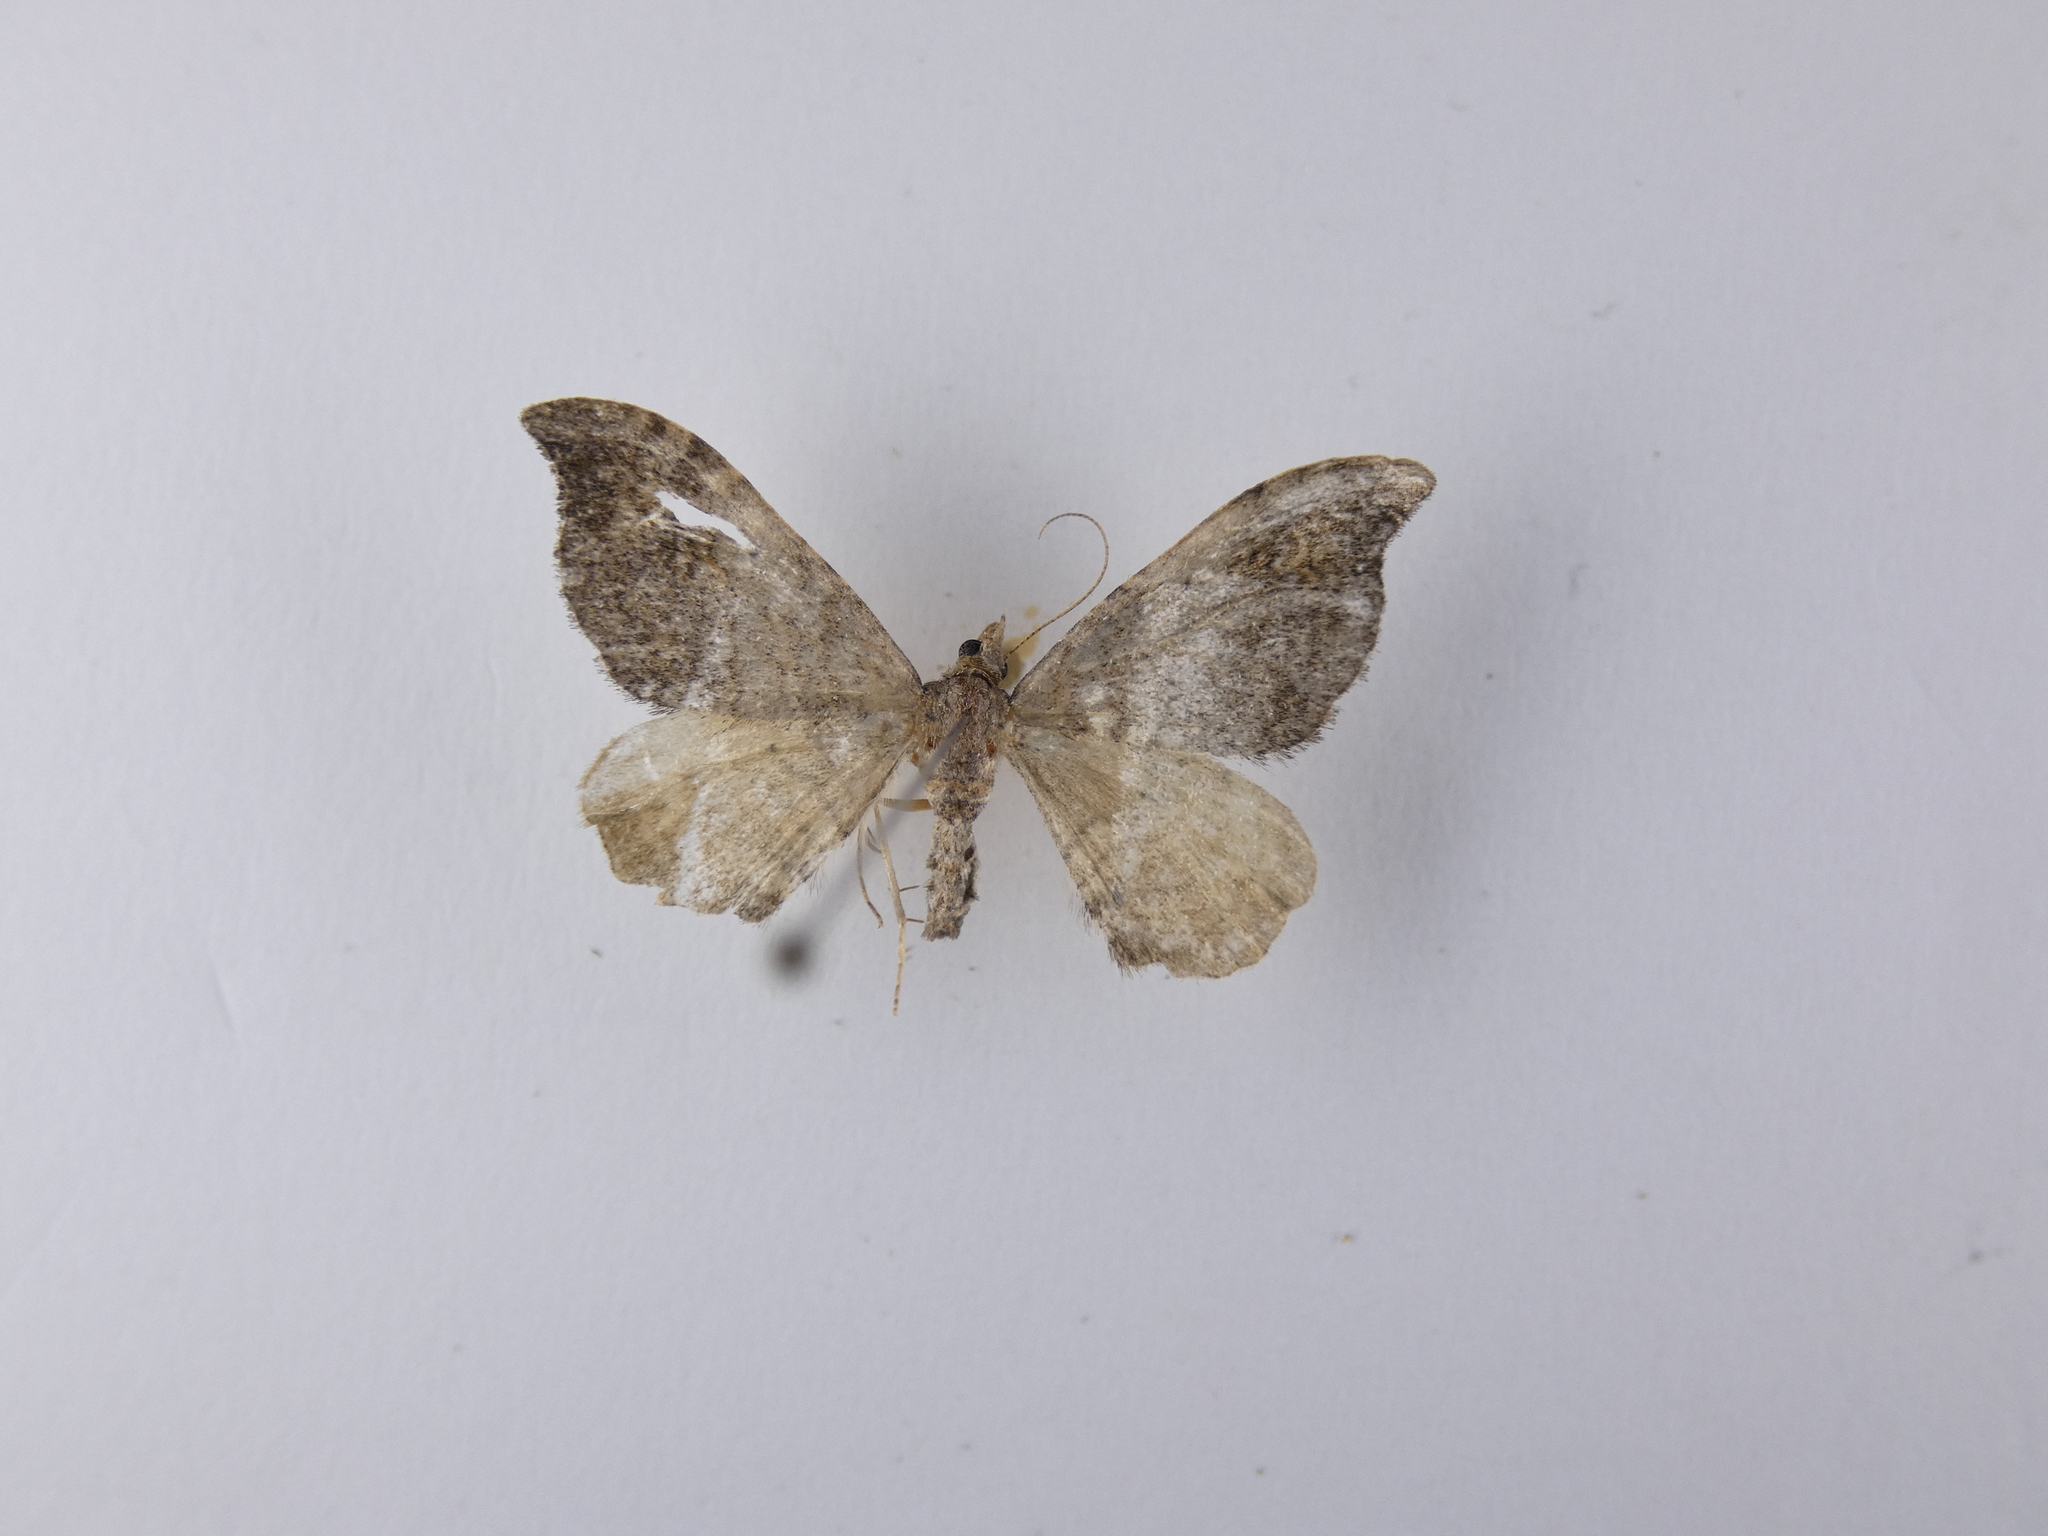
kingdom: Animalia
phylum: Arthropoda
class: Insecta
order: Lepidoptera
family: Geometridae
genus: Homodotis
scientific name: Homodotis megaspilata
